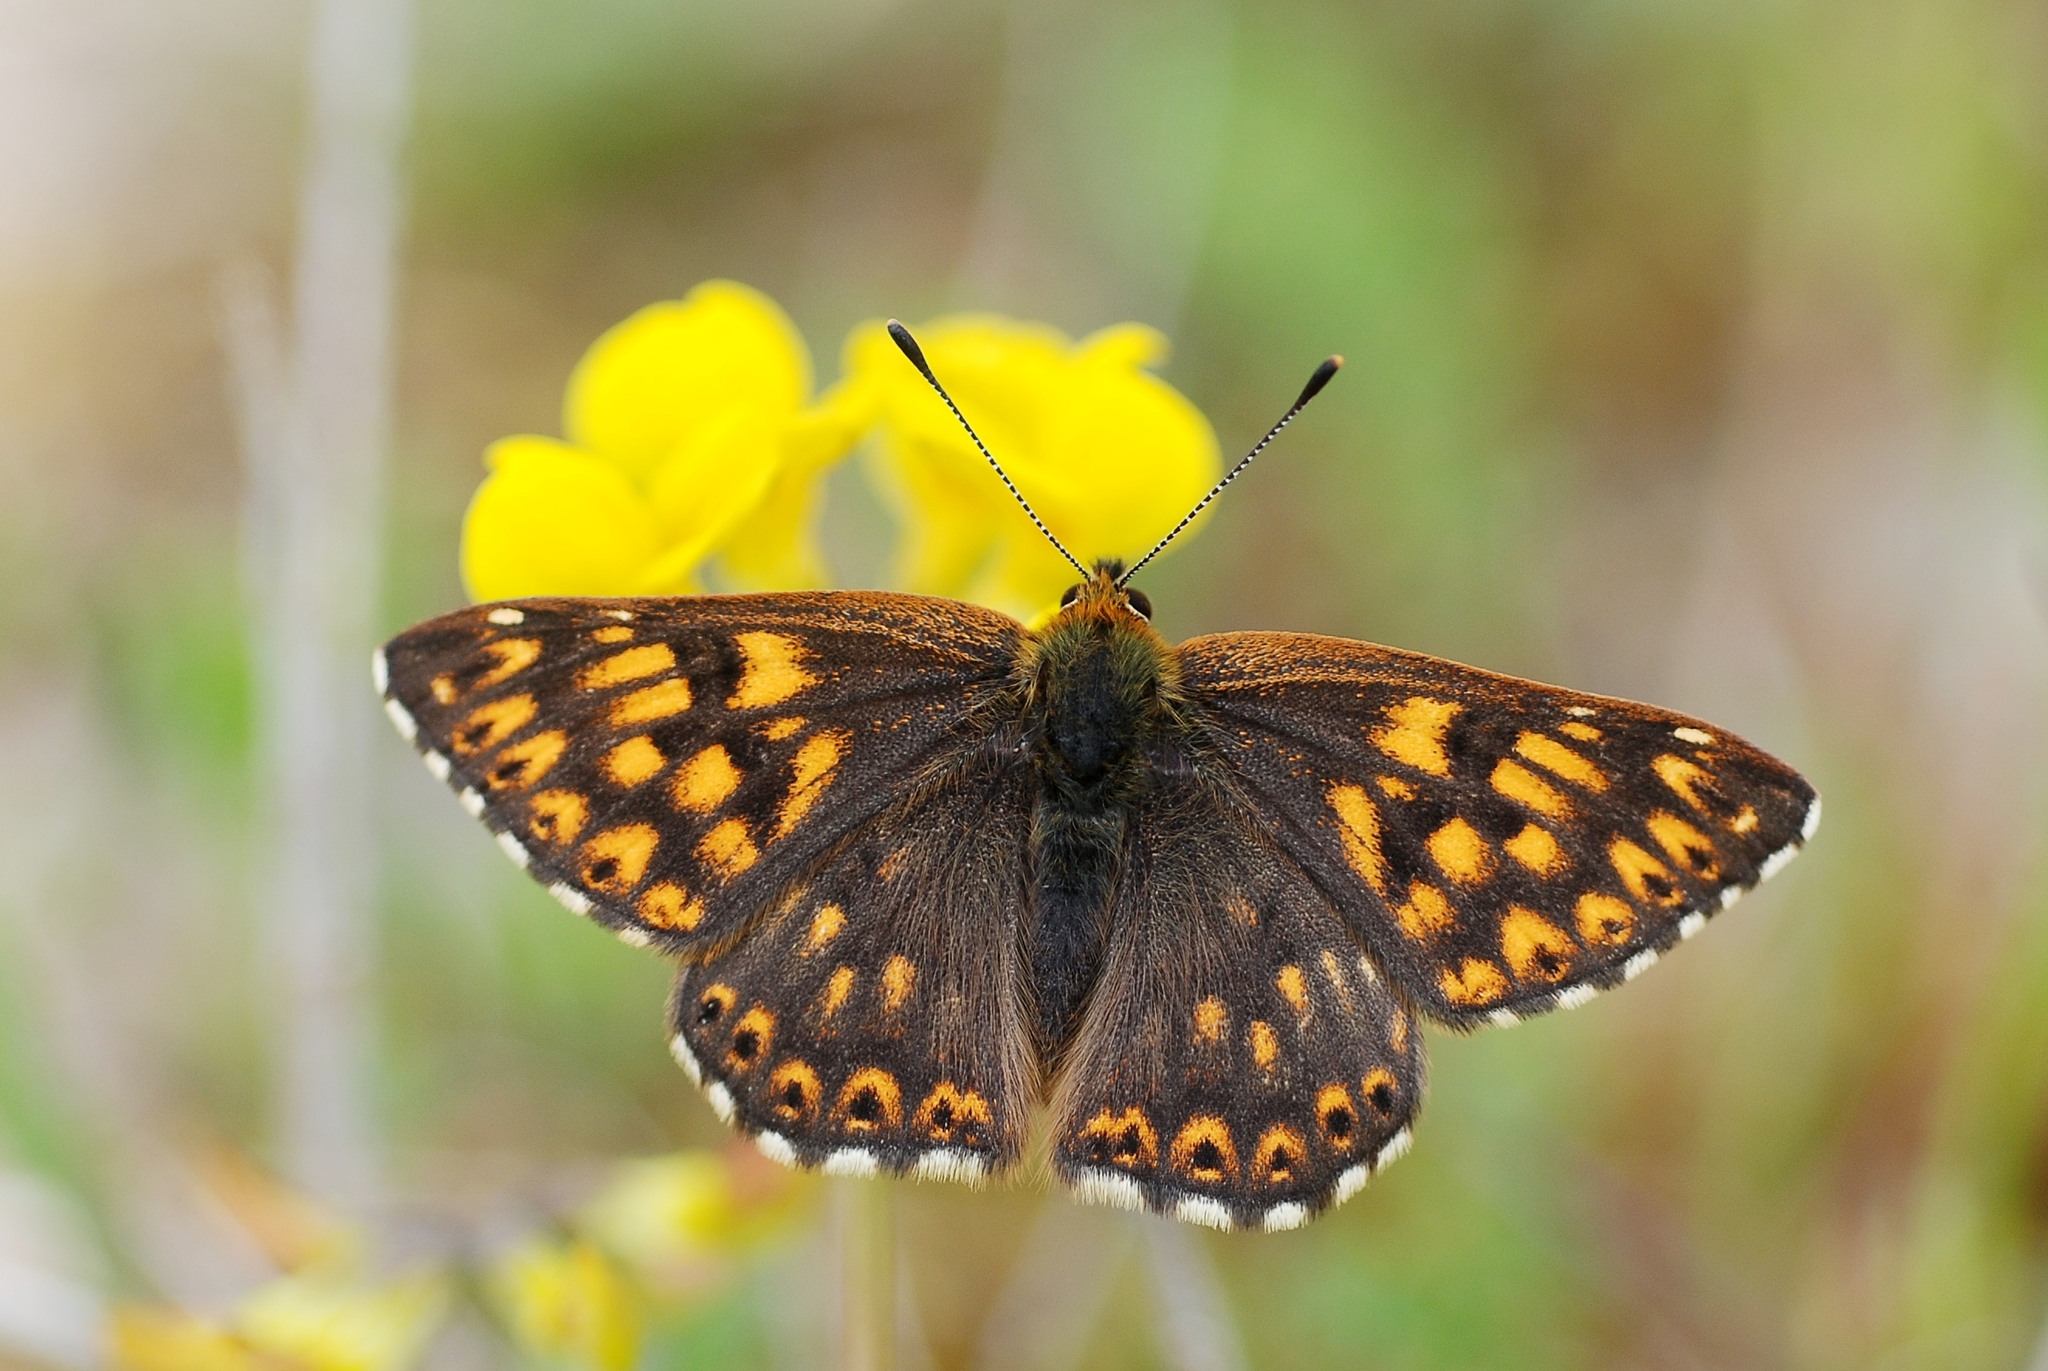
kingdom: Animalia
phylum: Arthropoda
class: Insecta
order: Lepidoptera
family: Riodinidae
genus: Hamearis
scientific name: Hamearis lucina
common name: Duke of burgundy fritillary
